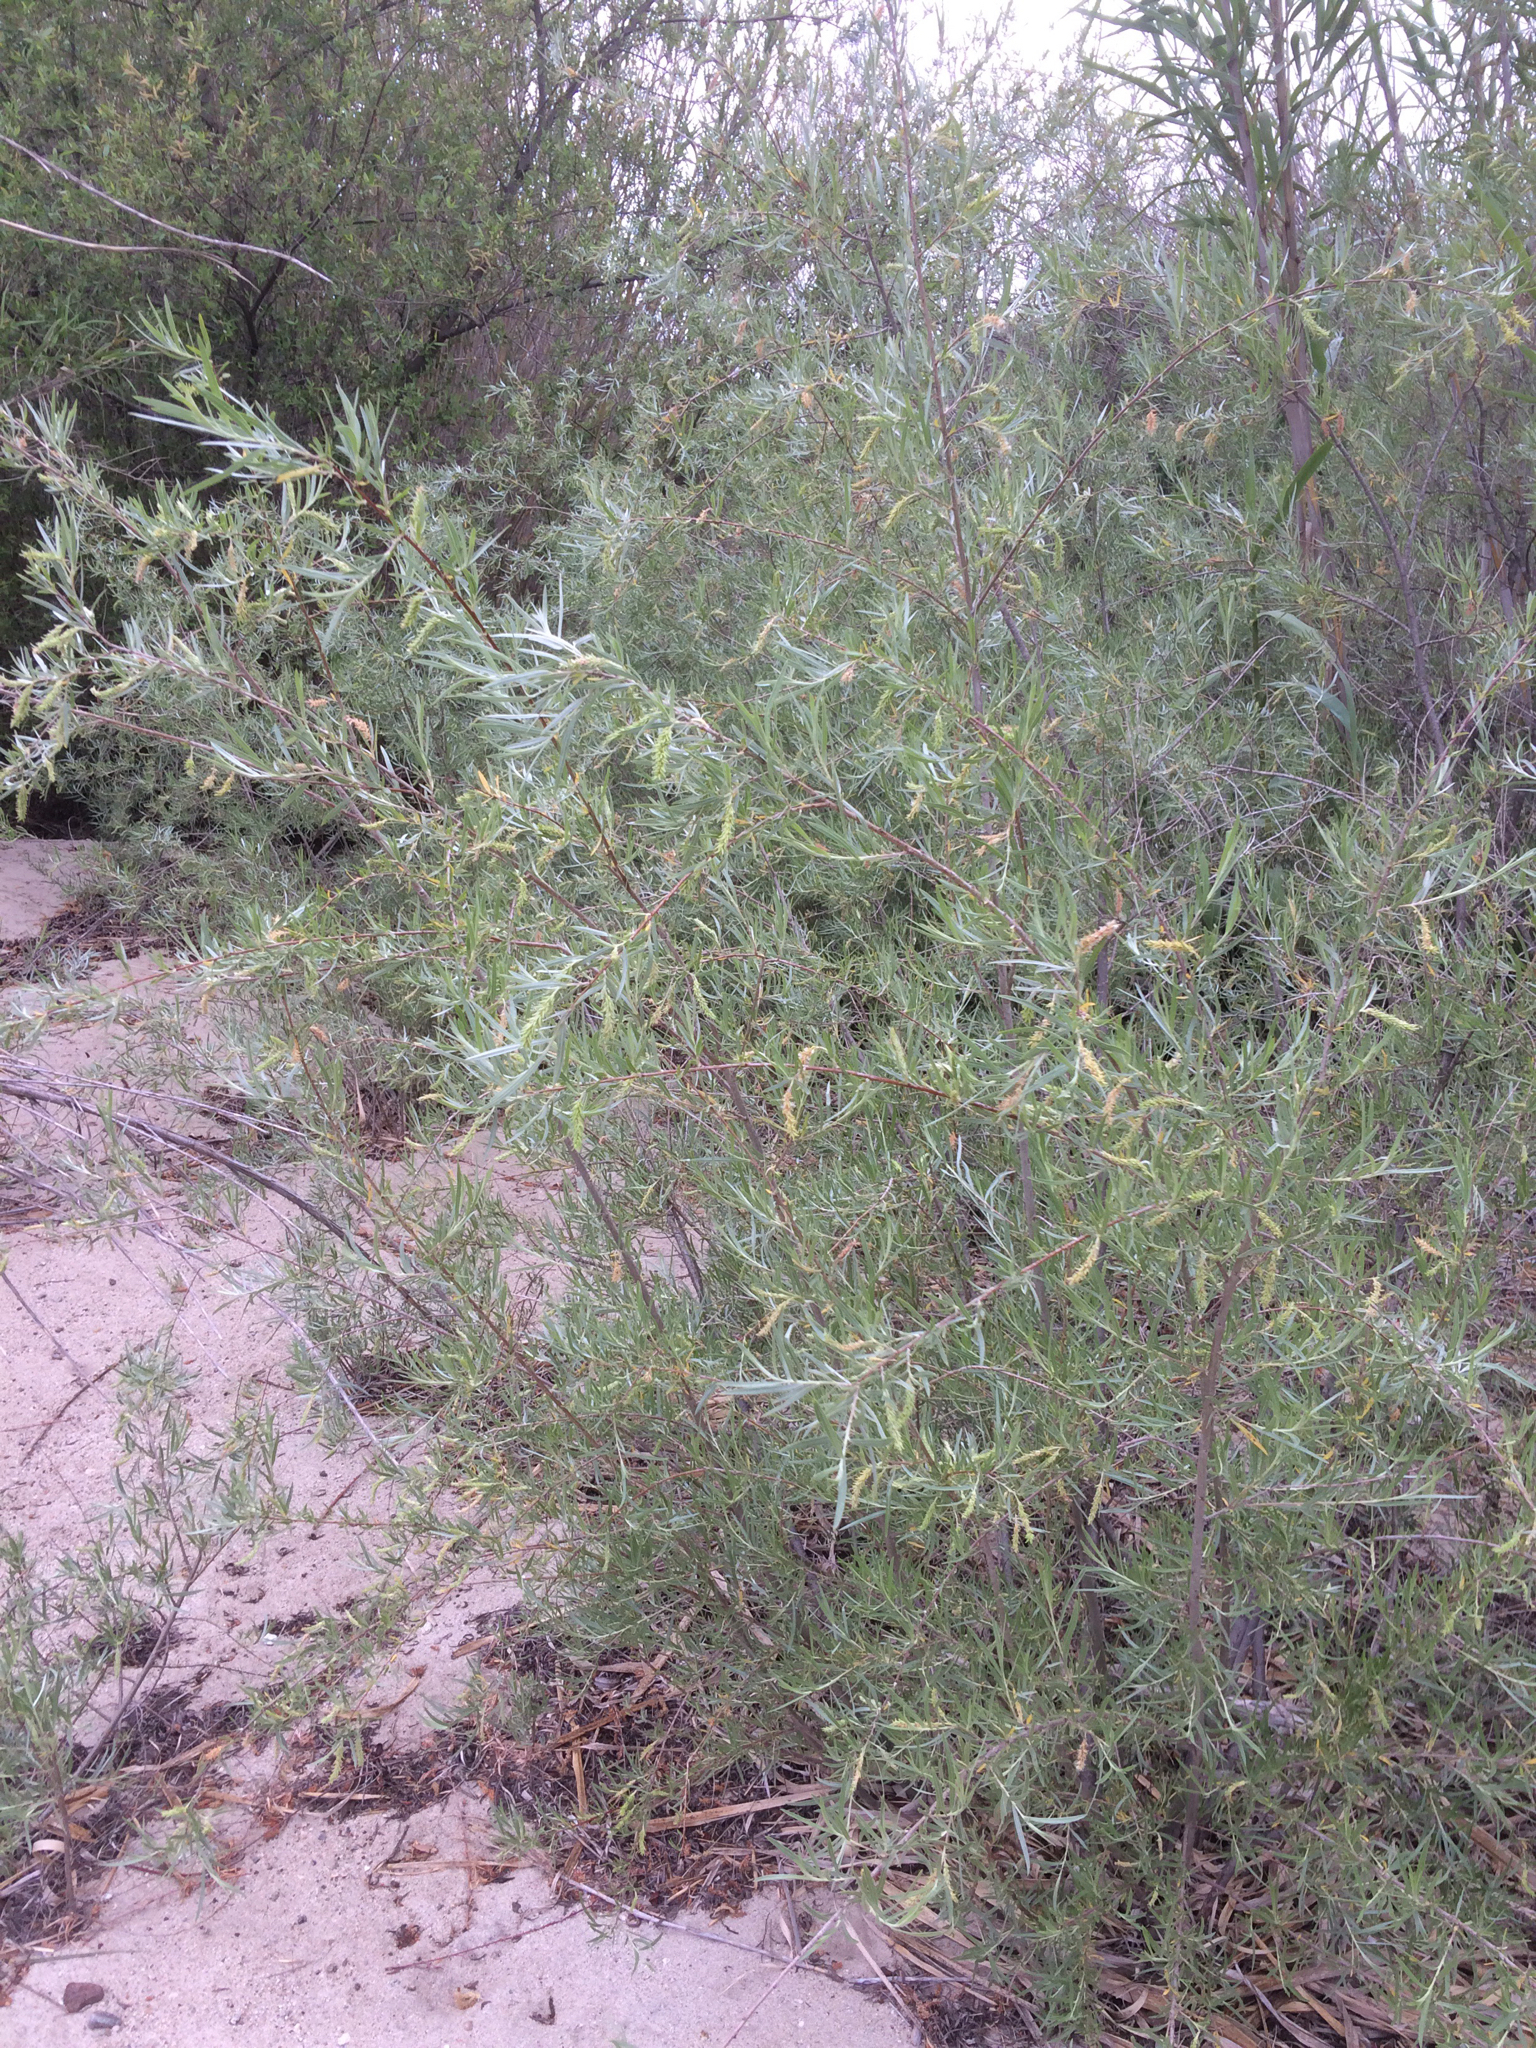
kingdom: Plantae
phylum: Tracheophyta
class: Magnoliopsida
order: Malpighiales
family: Salicaceae
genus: Salix
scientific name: Salix exigua
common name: Coyote willow
